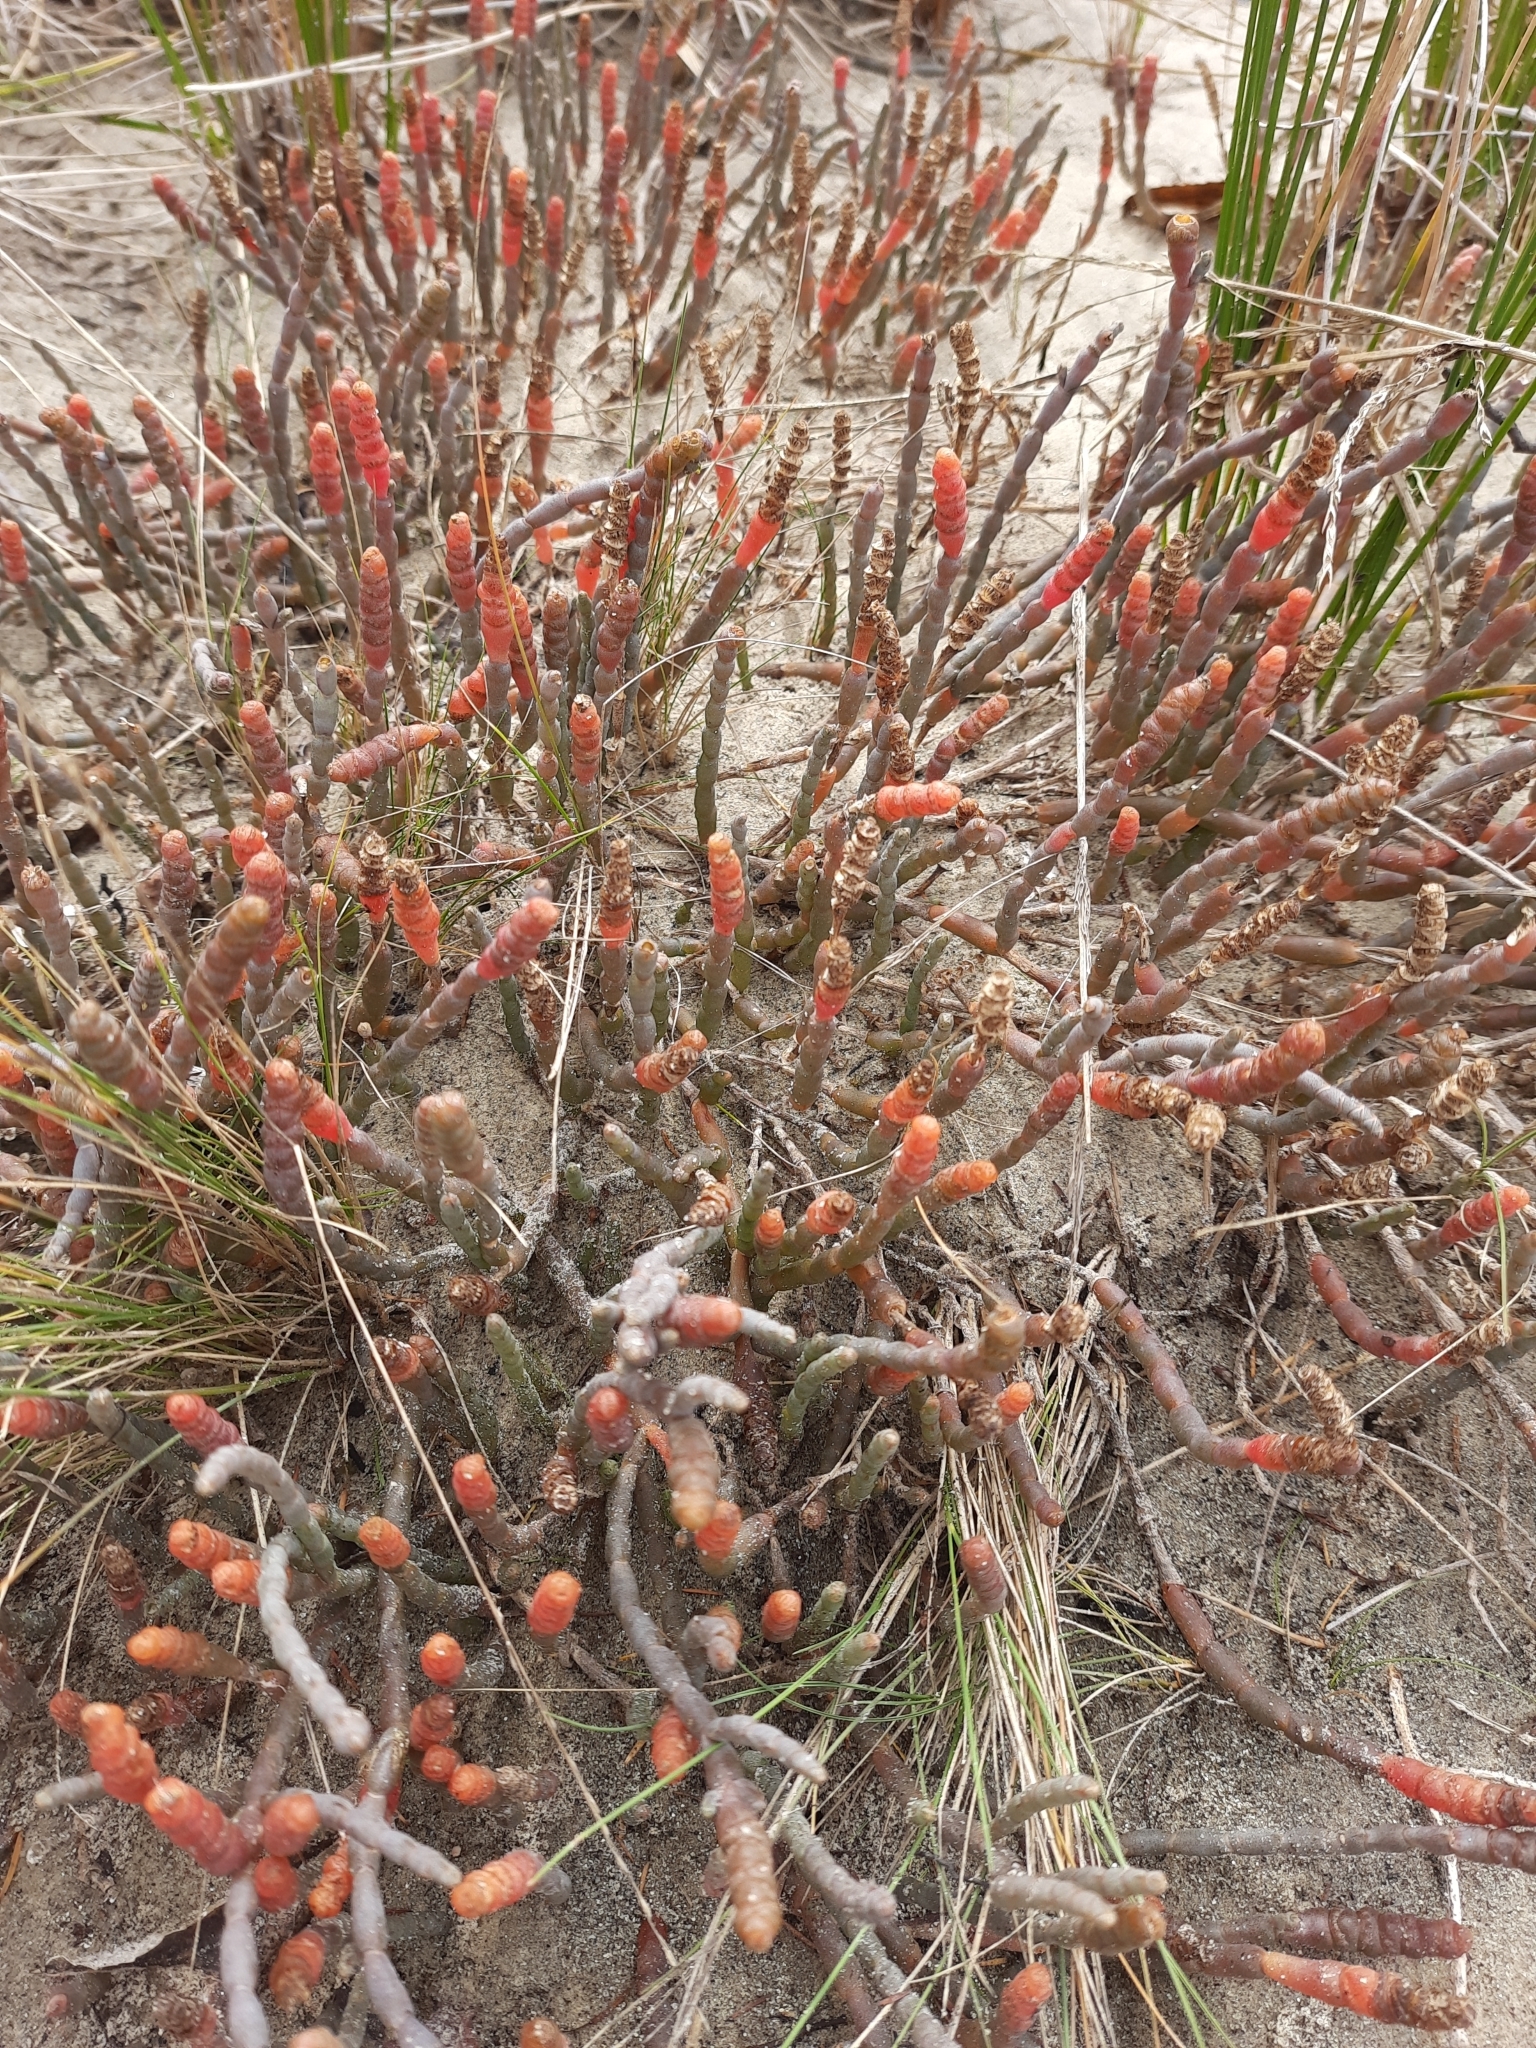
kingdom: Plantae
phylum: Tracheophyta
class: Magnoliopsida
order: Caryophyllales
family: Amaranthaceae
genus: Salicornia
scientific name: Salicornia quinqueflora
